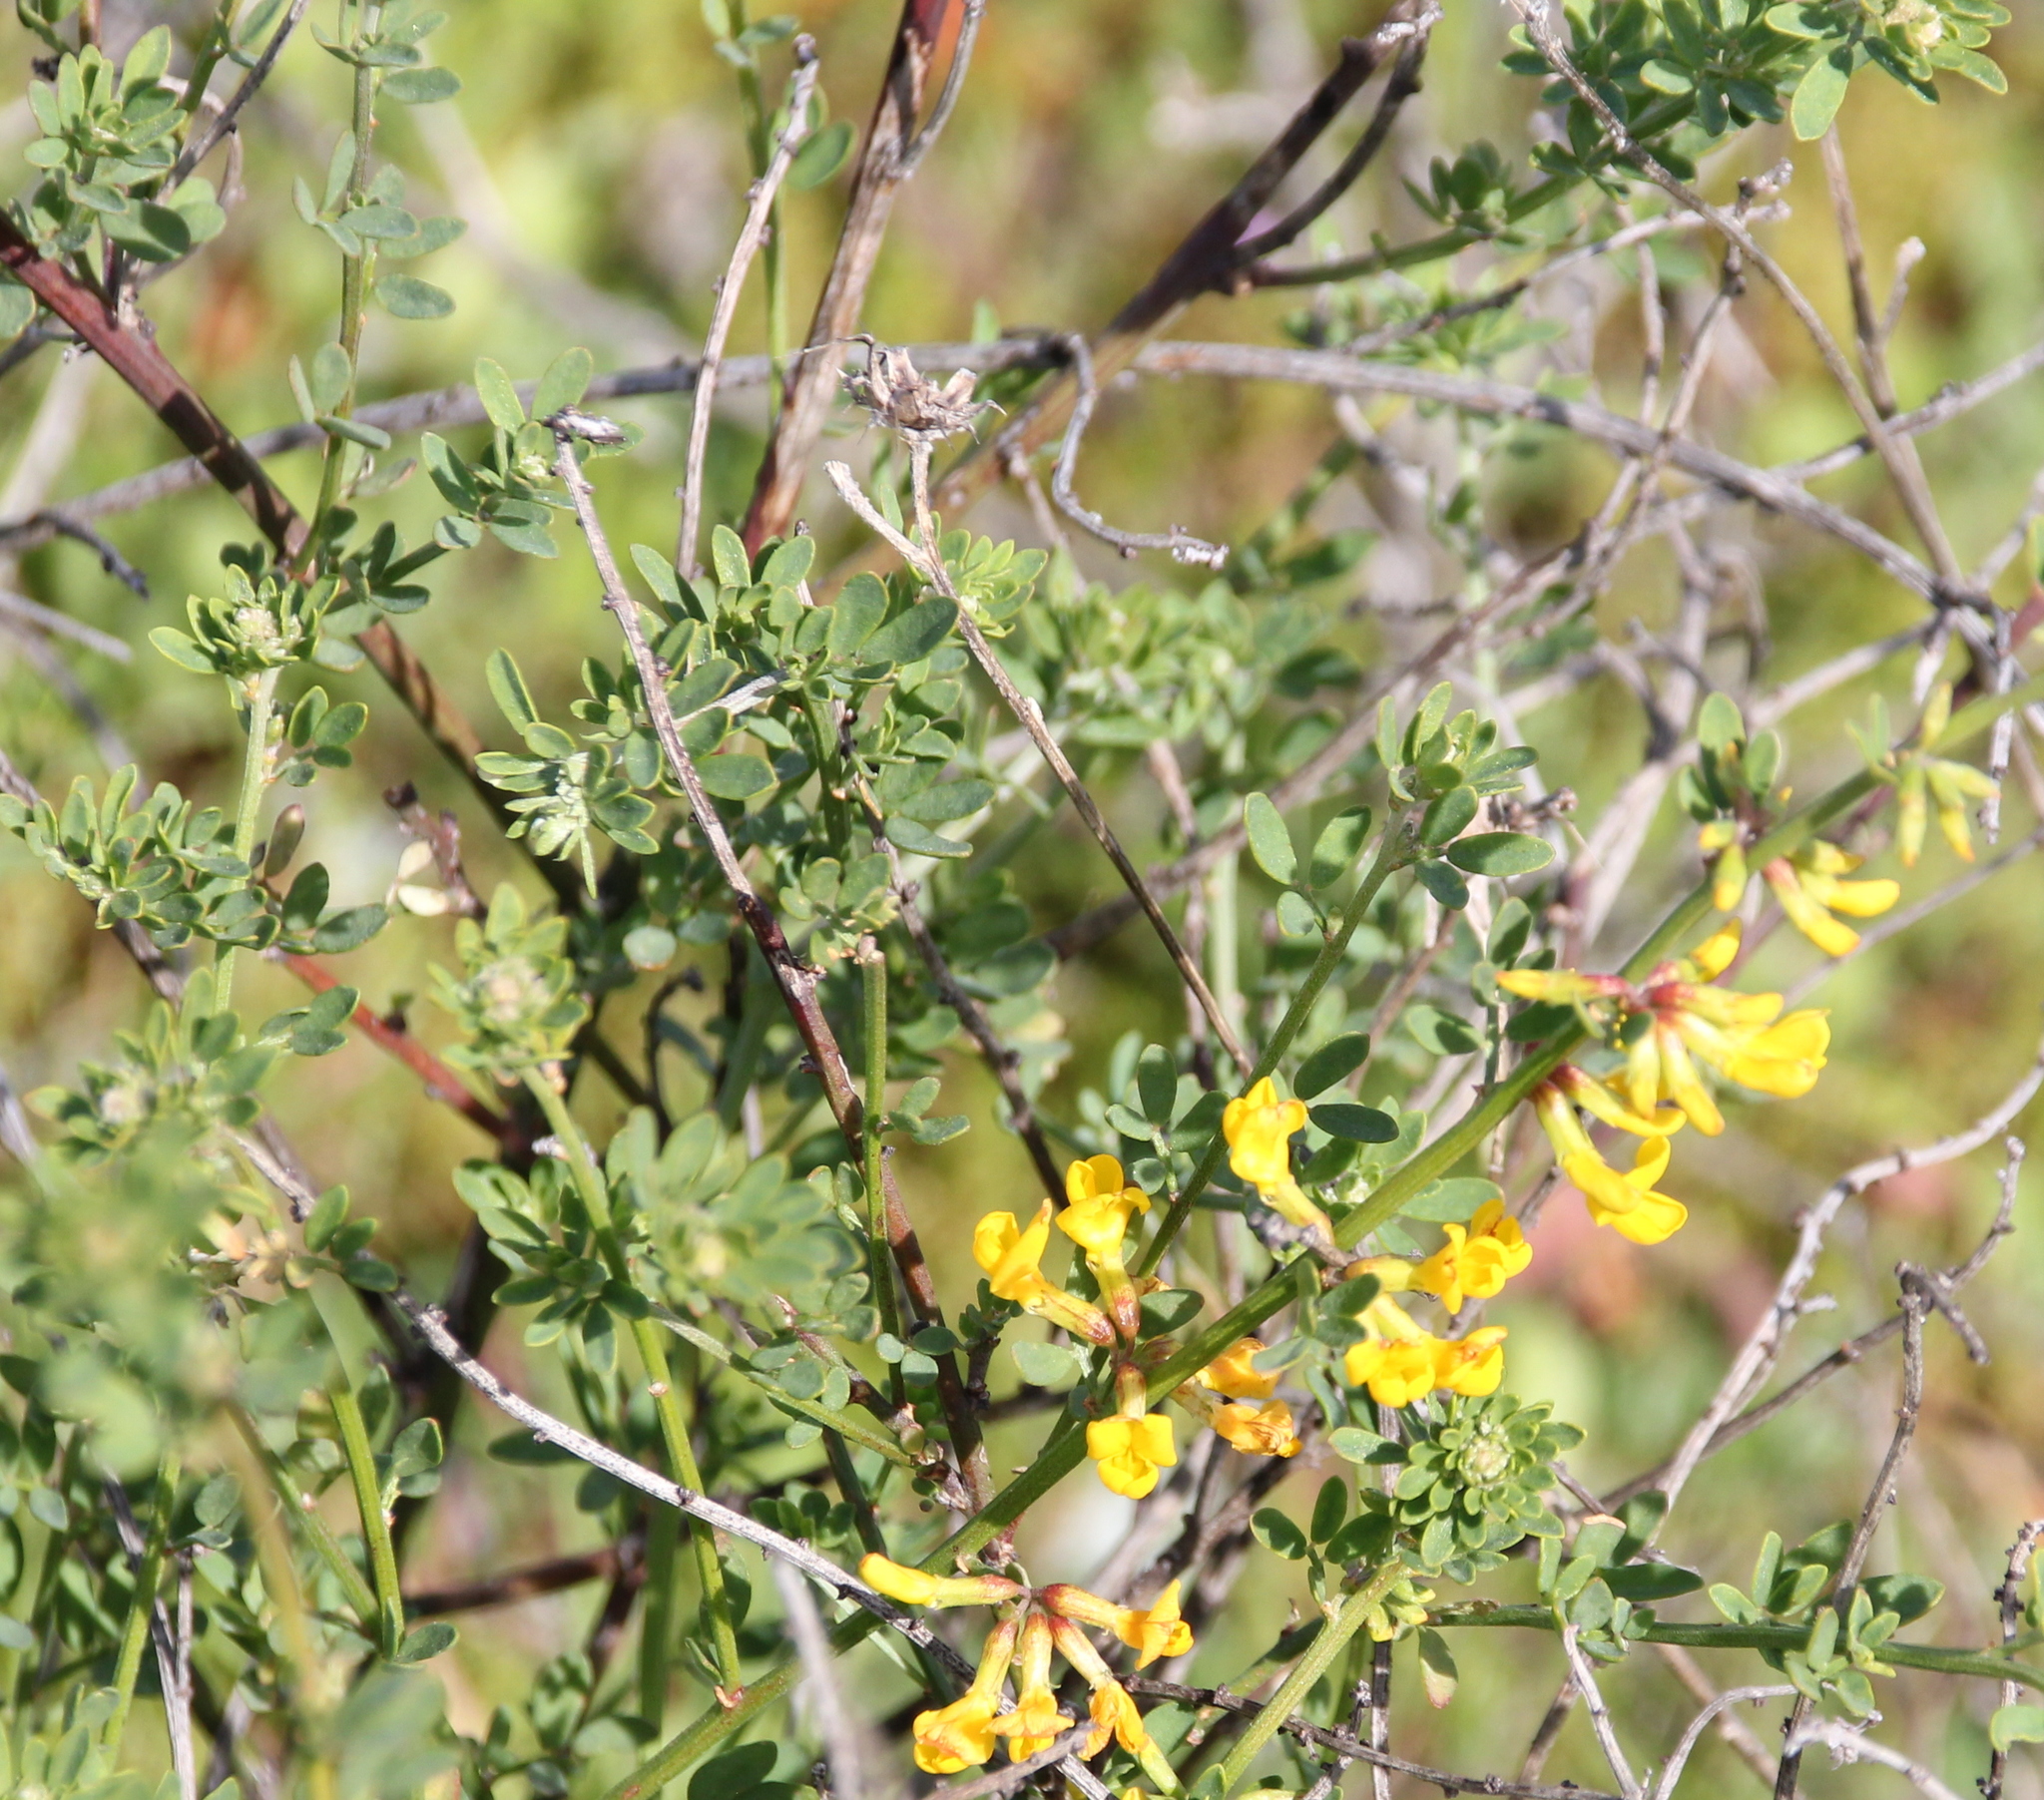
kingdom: Plantae
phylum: Tracheophyta
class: Magnoliopsida
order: Fabales
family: Fabaceae
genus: Acmispon
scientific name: Acmispon glaber
